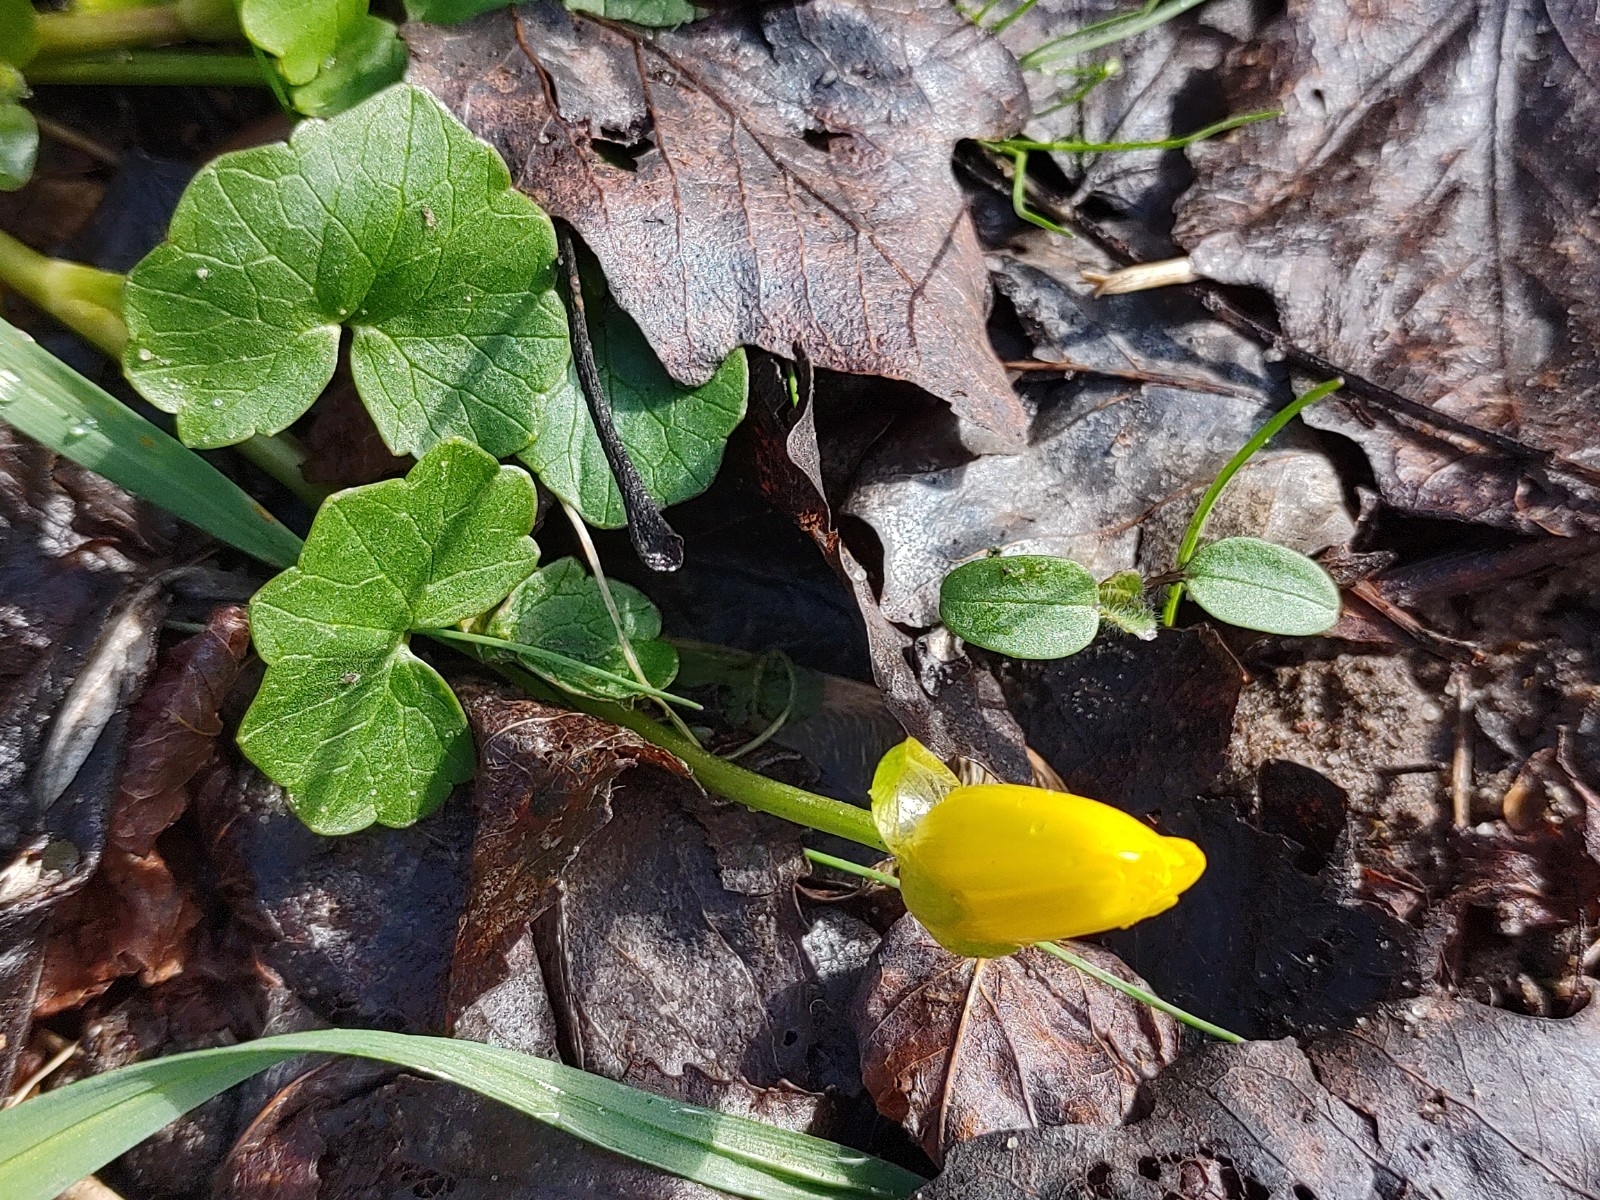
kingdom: Plantae
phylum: Tracheophyta
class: Magnoliopsida
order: Ranunculales
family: Ranunculaceae
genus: Ficaria
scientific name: Ficaria verna
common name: Lesser celandine
